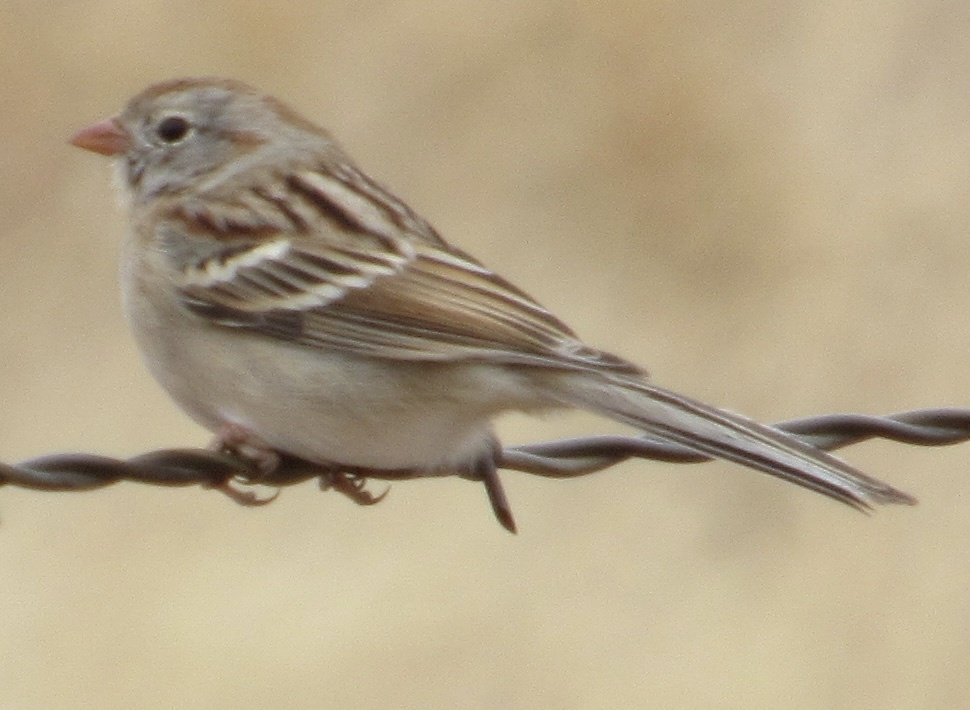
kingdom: Animalia
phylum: Chordata
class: Aves
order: Passeriformes
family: Passerellidae
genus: Spizella
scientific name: Spizella pusilla
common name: Field sparrow
